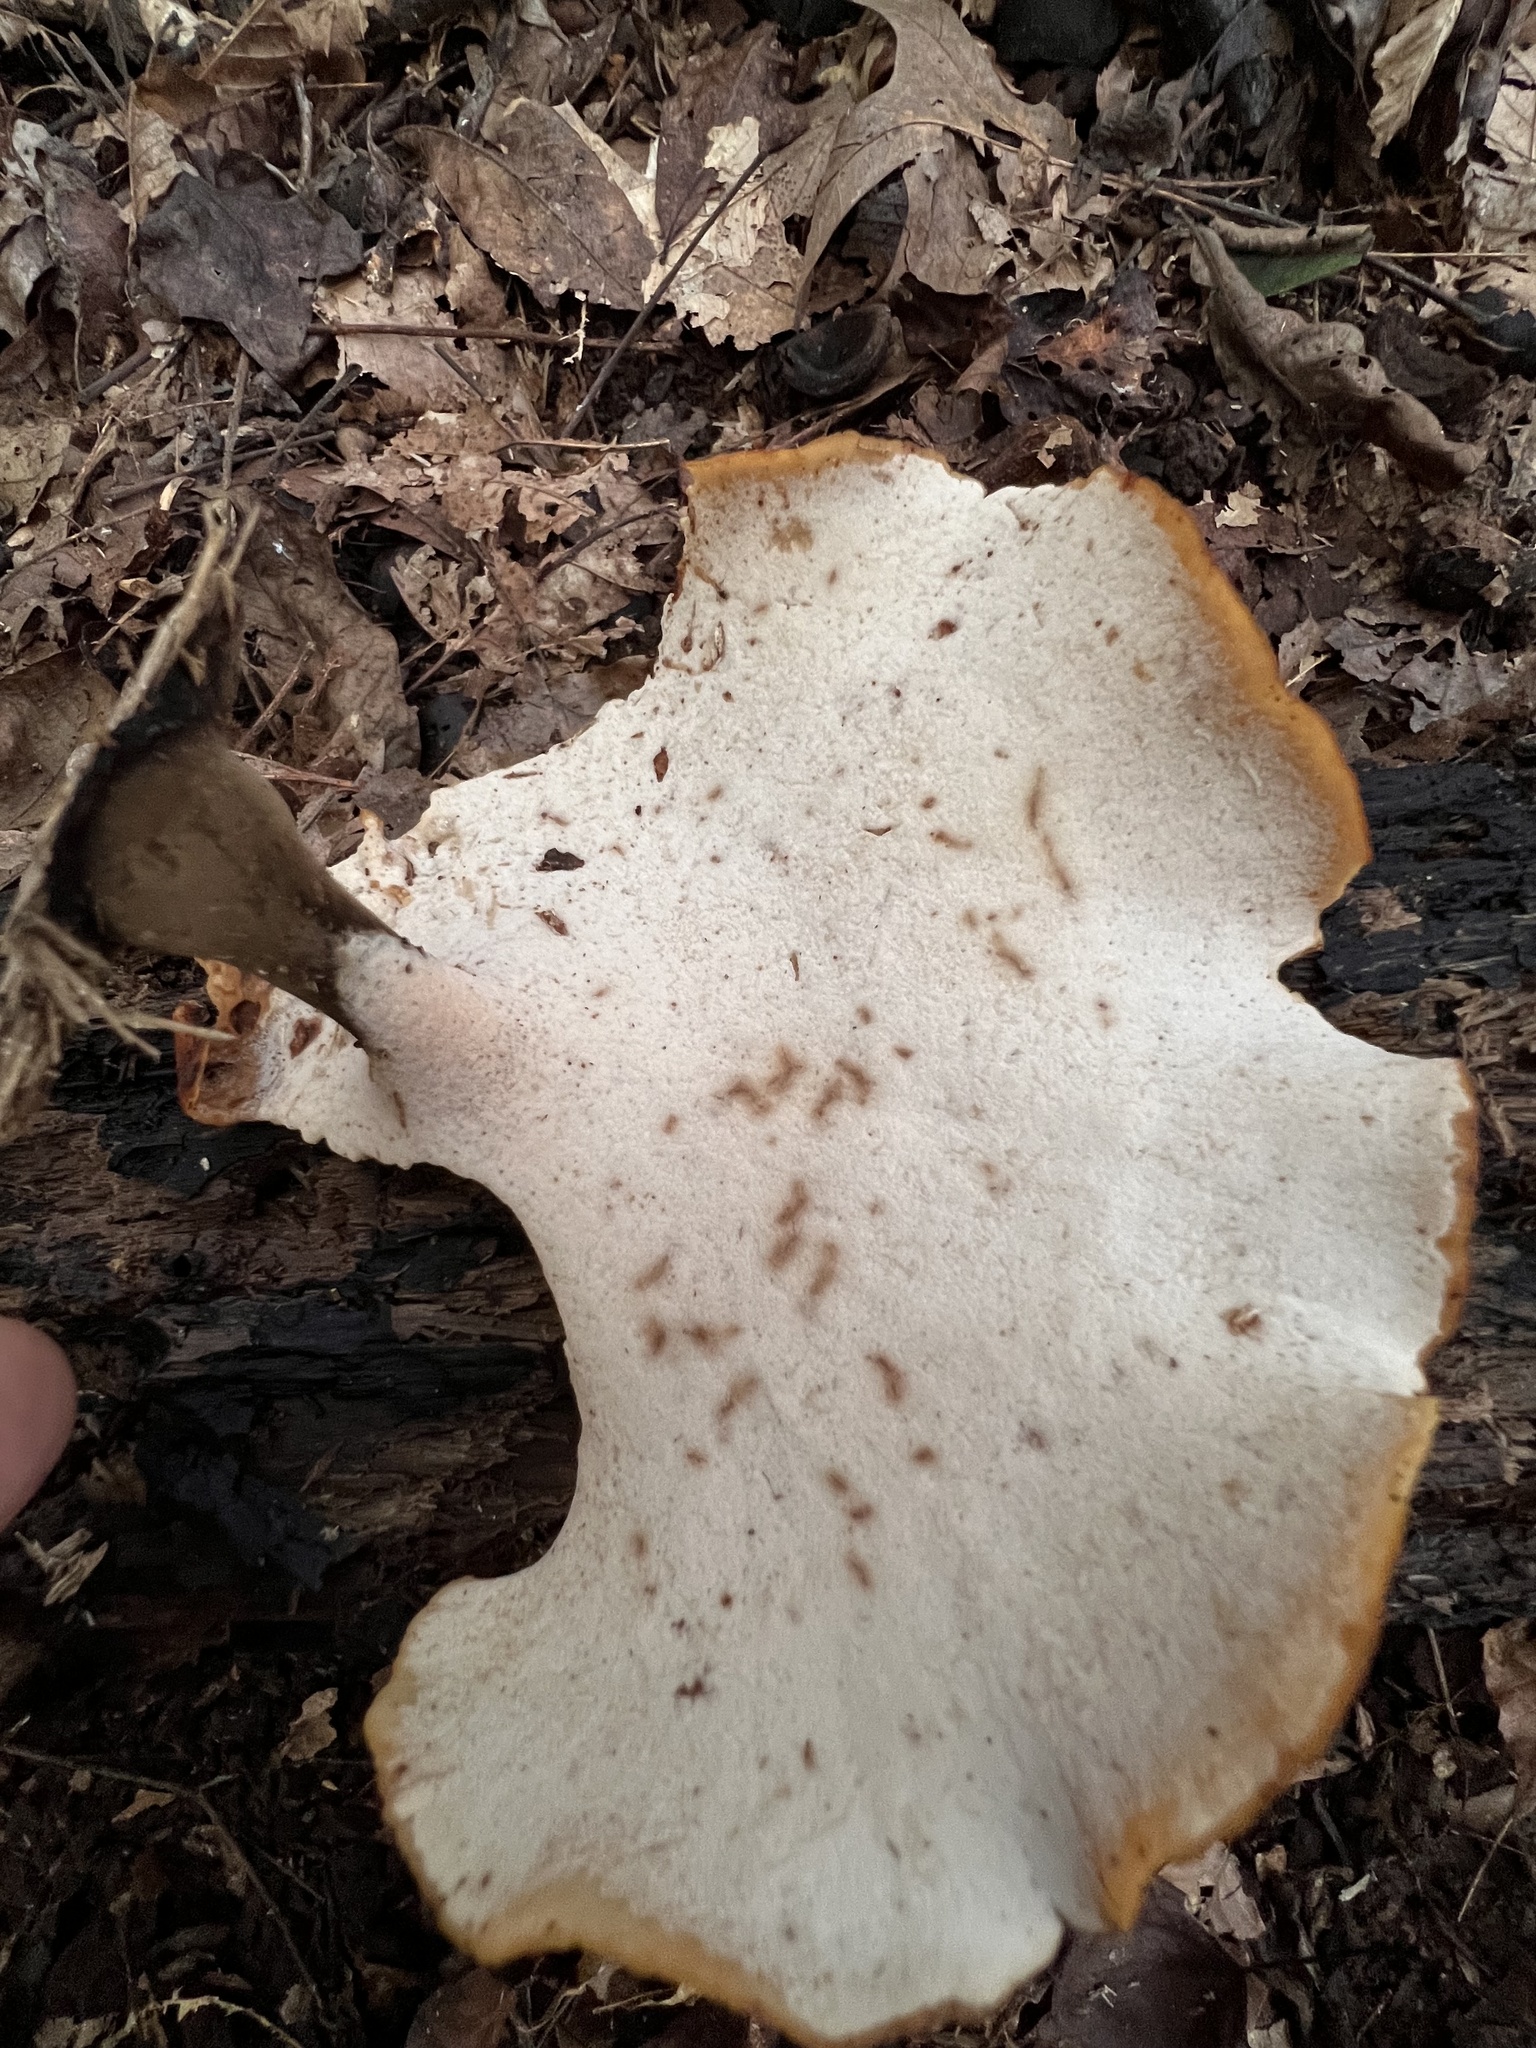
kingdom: Fungi
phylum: Basidiomycota
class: Agaricomycetes
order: Polyporales
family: Polyporaceae
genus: Picipes
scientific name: Picipes badius
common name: Bay polypore
